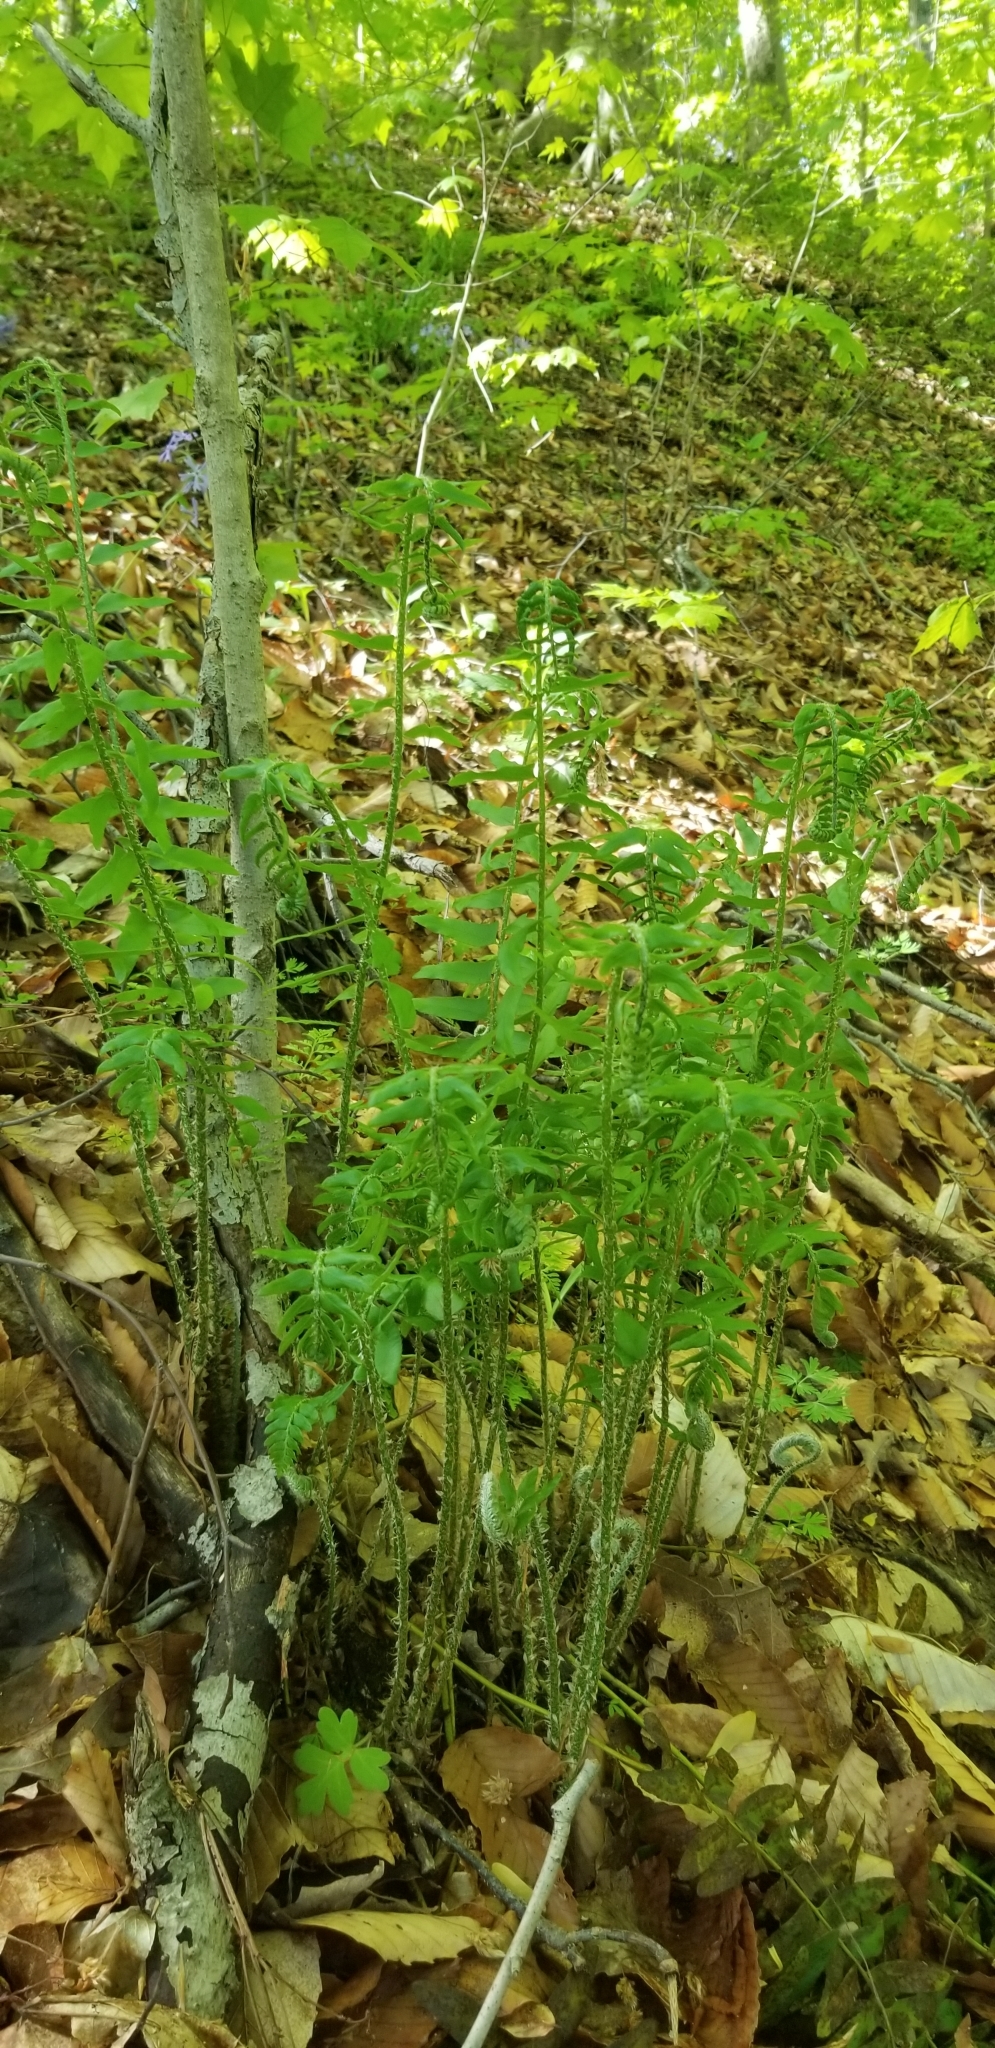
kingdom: Plantae
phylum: Tracheophyta
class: Polypodiopsida
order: Polypodiales
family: Dryopteridaceae
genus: Polystichum
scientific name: Polystichum acrostichoides
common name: Christmas fern
